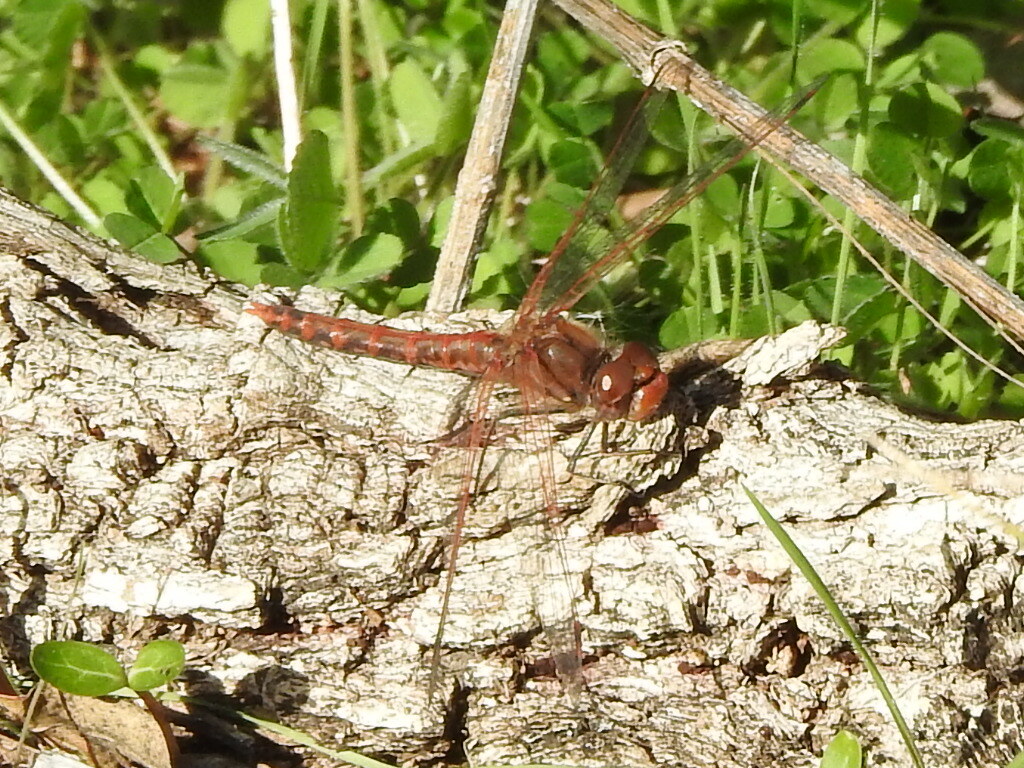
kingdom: Animalia
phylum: Arthropoda
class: Insecta
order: Odonata
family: Libellulidae
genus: Sympetrum
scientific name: Sympetrum corruptum
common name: Variegated meadowhawk
